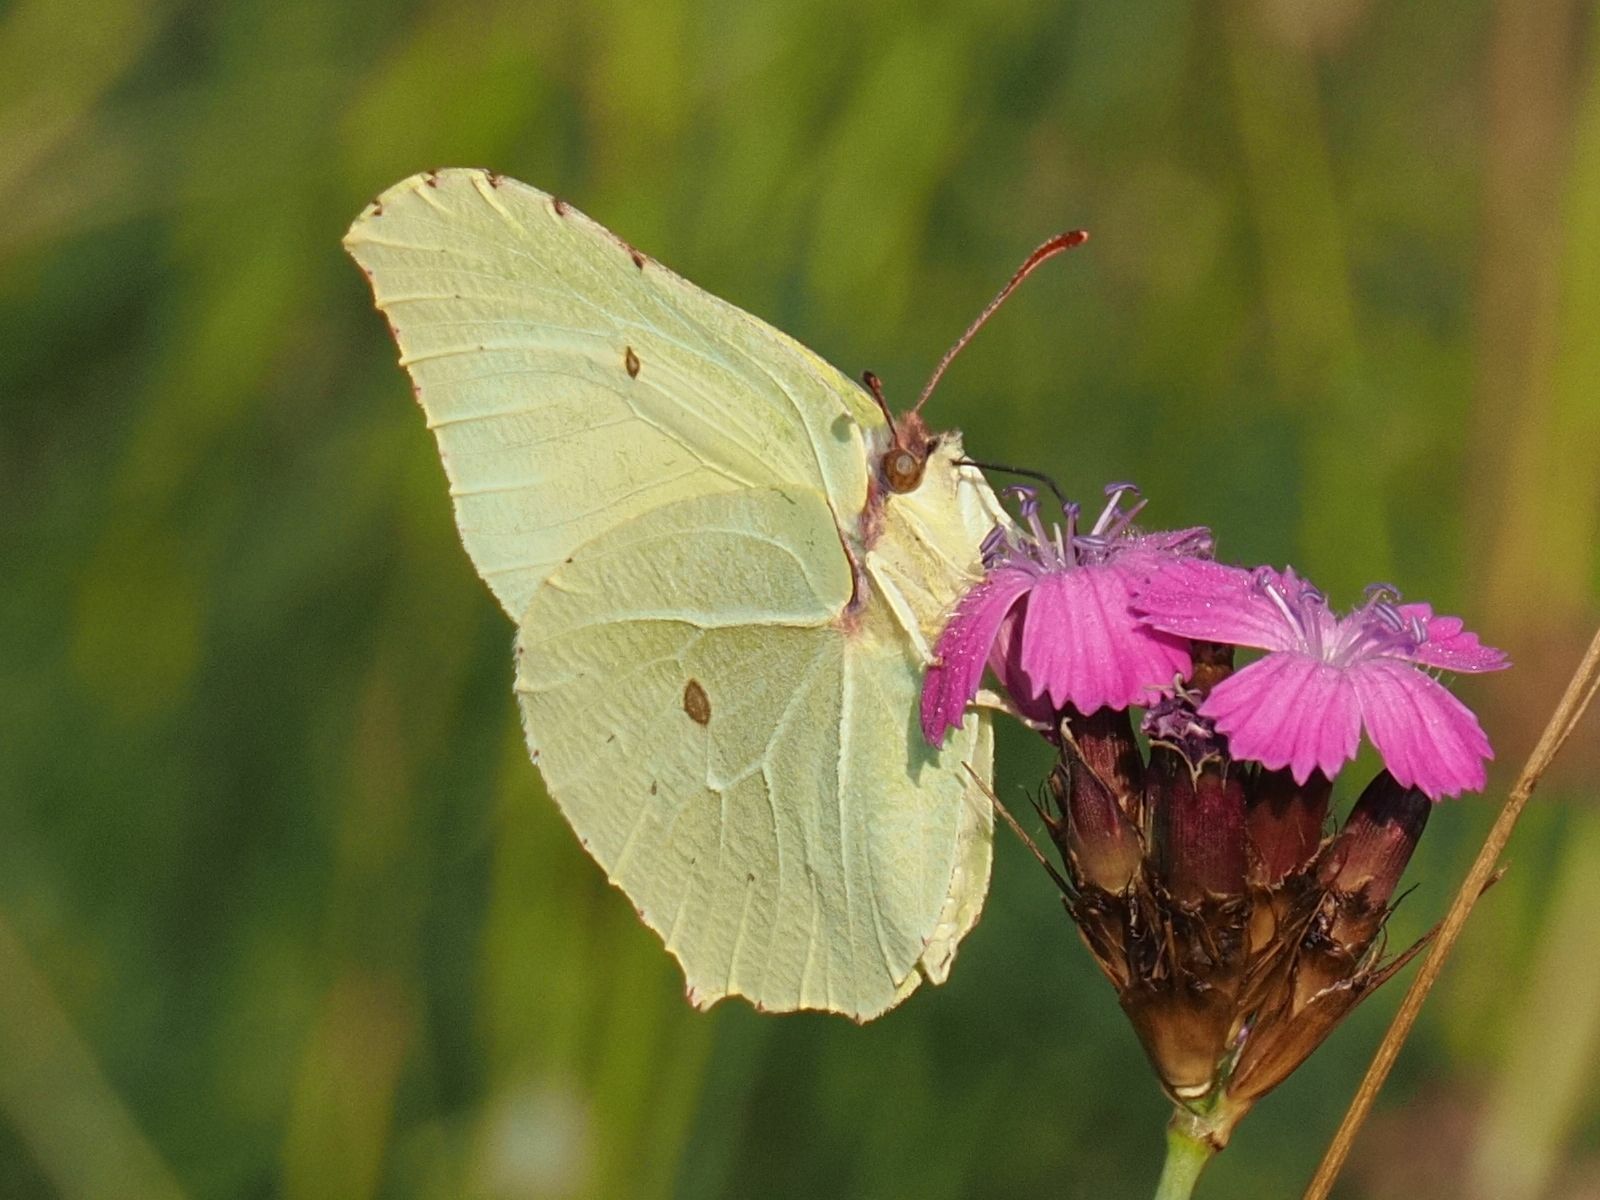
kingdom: Animalia
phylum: Arthropoda
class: Insecta
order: Lepidoptera
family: Pieridae
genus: Gonepteryx
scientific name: Gonepteryx rhamni
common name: Brimstone
